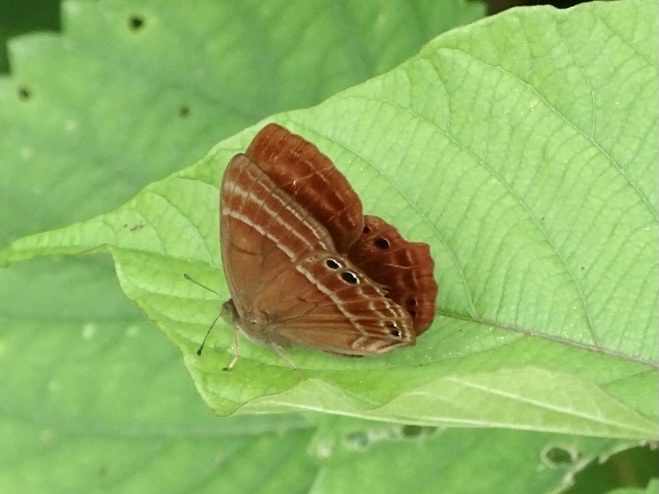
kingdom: Animalia
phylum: Arthropoda
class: Insecta
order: Lepidoptera
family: Lycaenidae
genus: Abisara
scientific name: Abisara echeria
